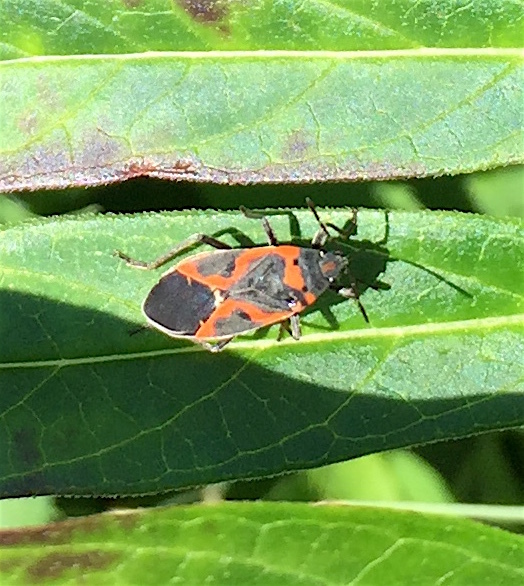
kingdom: Animalia
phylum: Arthropoda
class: Insecta
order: Hemiptera
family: Lygaeidae
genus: Lygaeus
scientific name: Lygaeus kalmii
